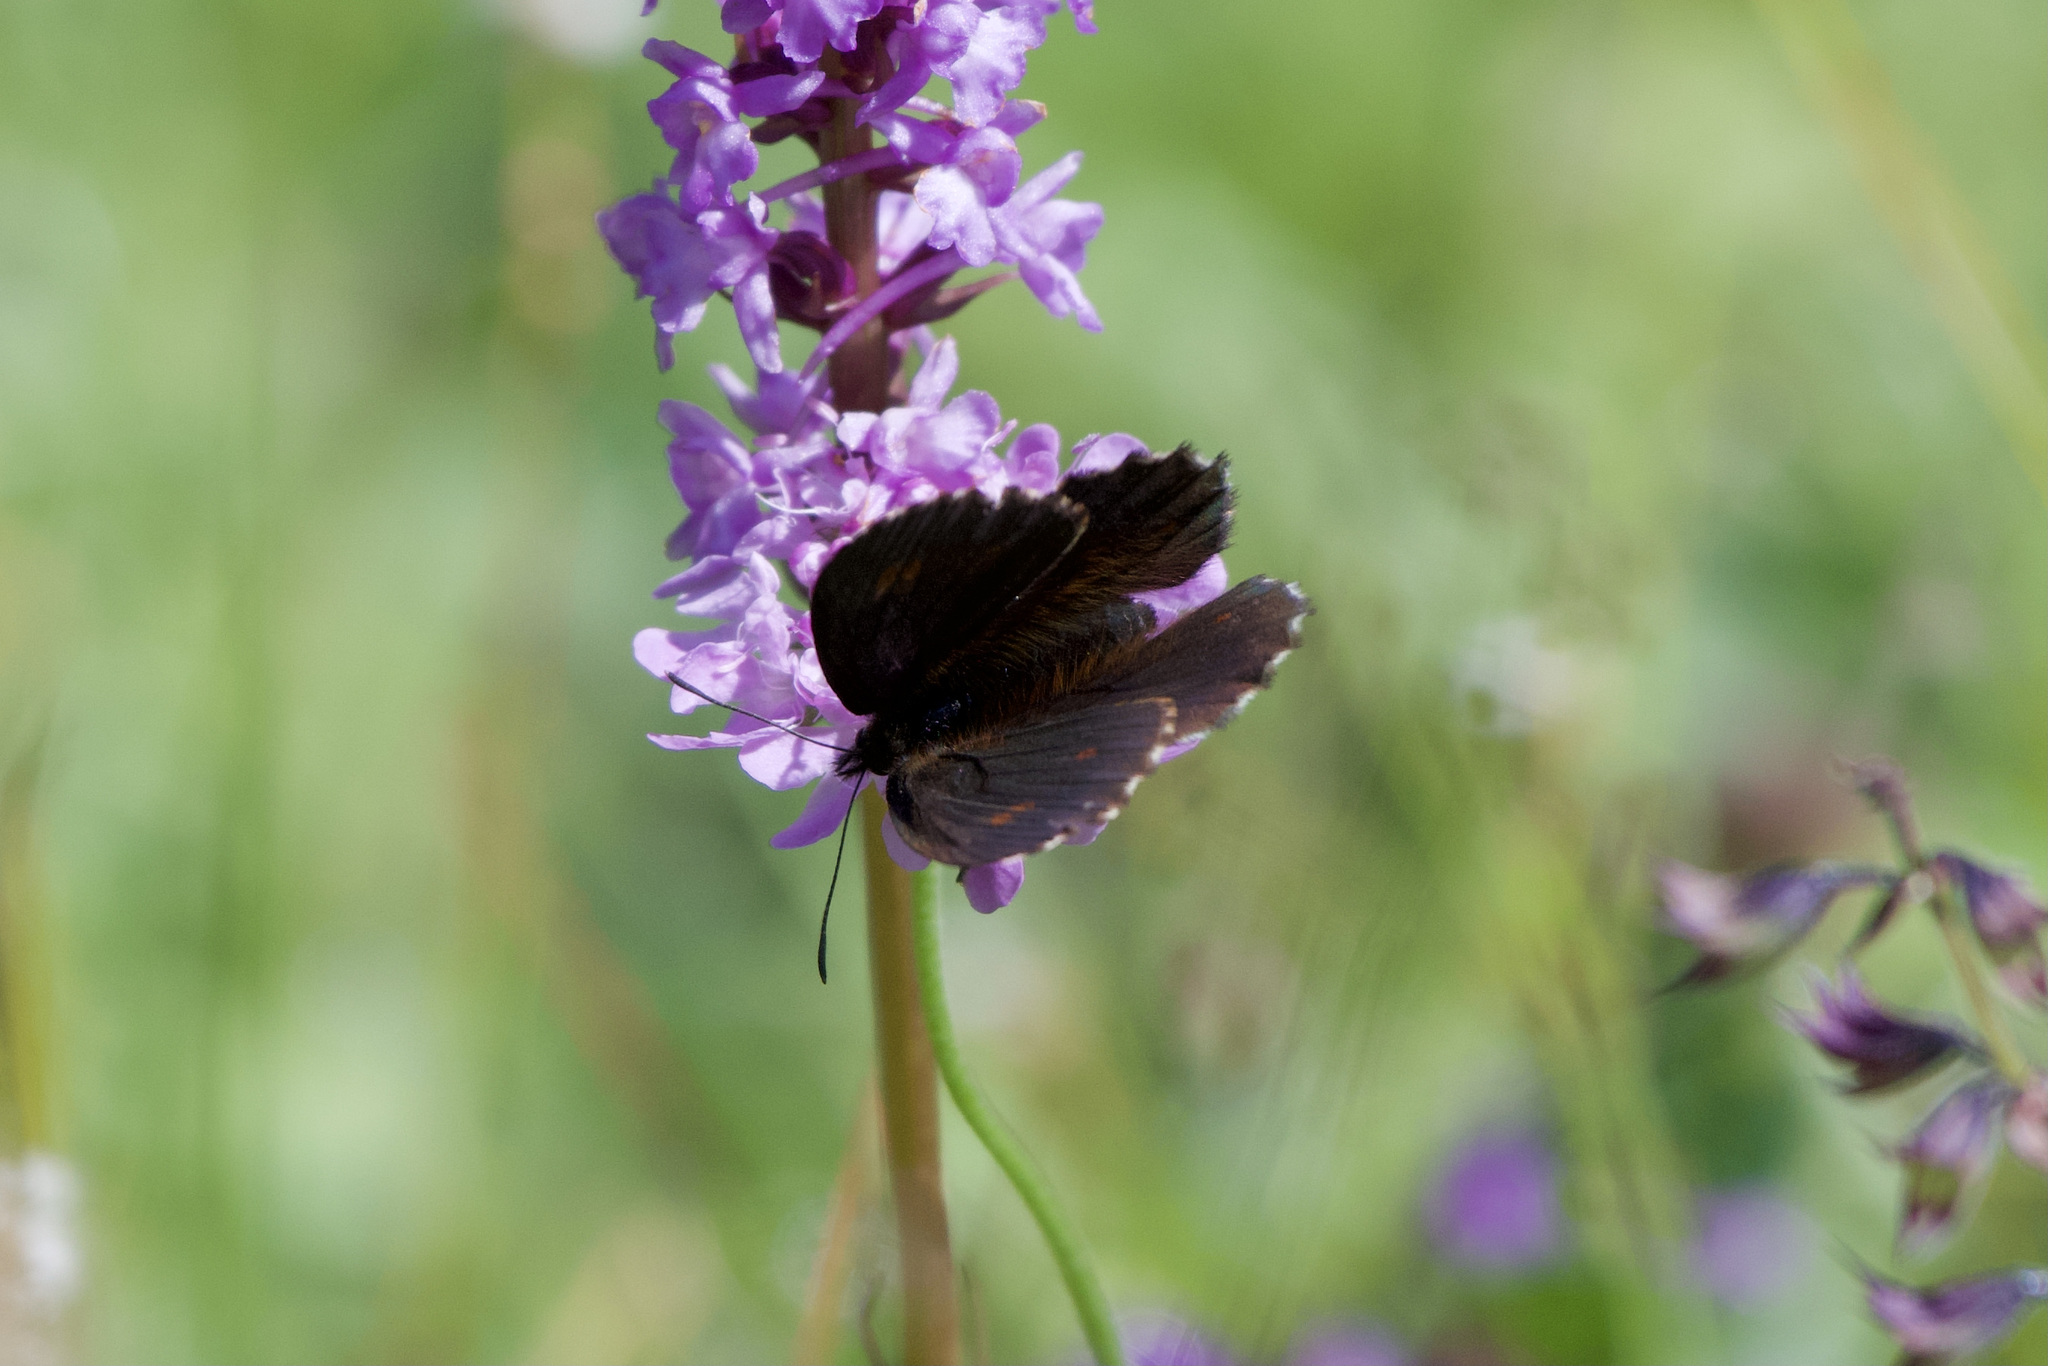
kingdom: Animalia
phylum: Arthropoda
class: Insecta
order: Lepidoptera
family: Nymphalidae
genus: Erebia
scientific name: Erebia euryale
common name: Large ringlet
